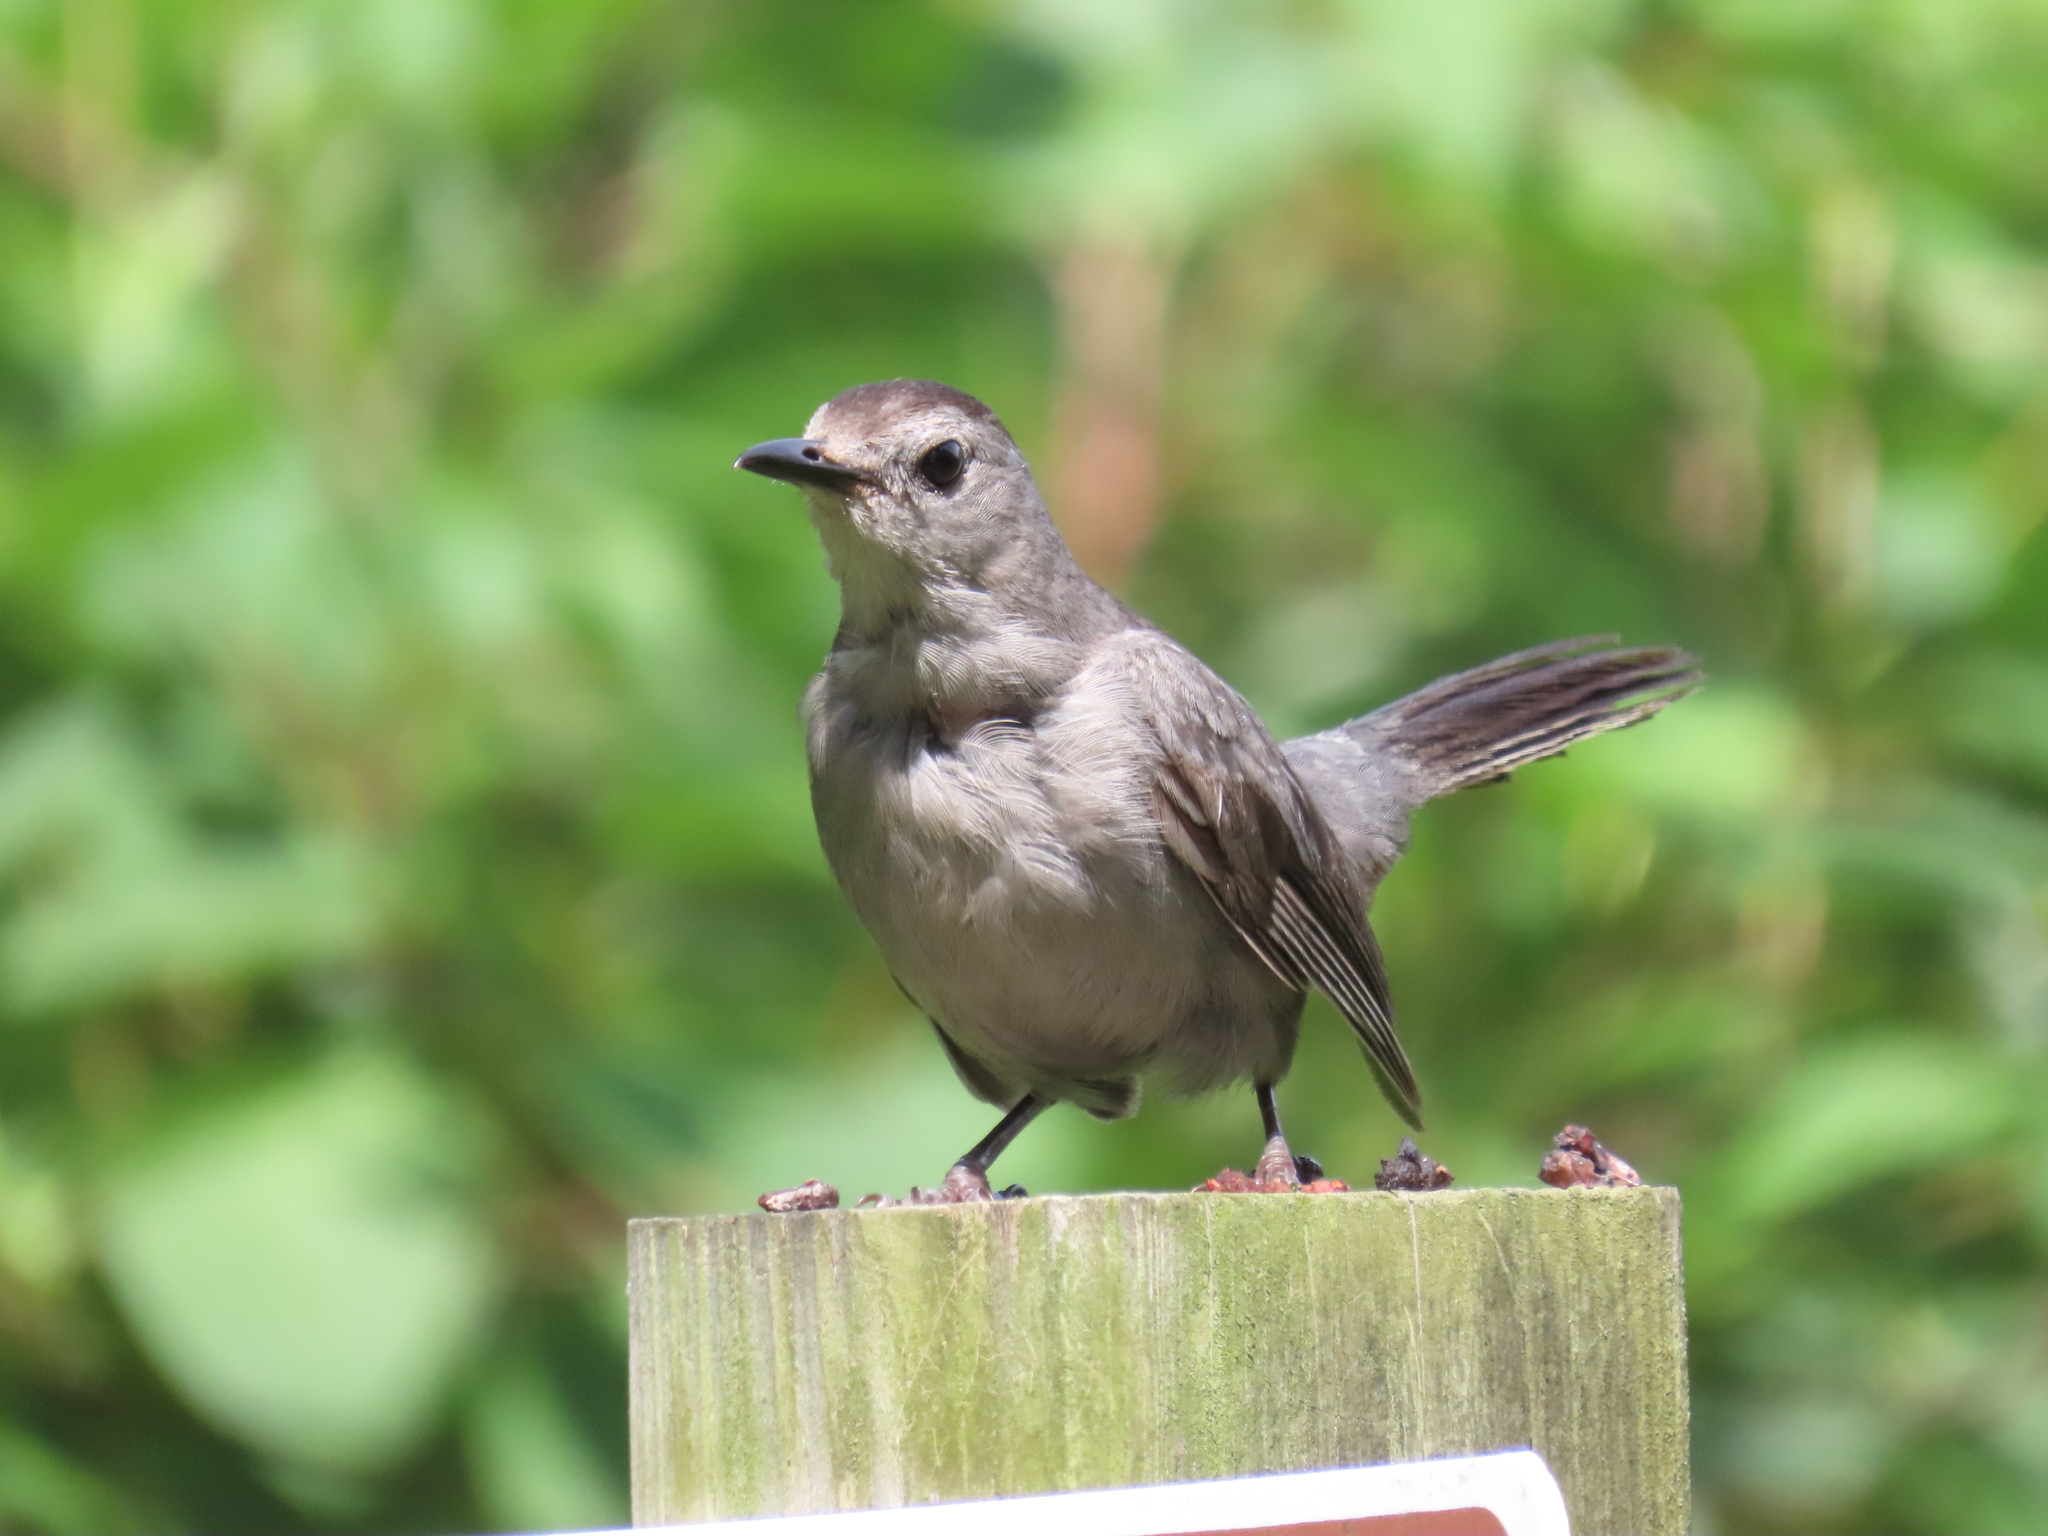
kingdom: Animalia
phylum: Chordata
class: Aves
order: Passeriformes
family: Mimidae
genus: Dumetella
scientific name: Dumetella carolinensis
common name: Gray catbird
